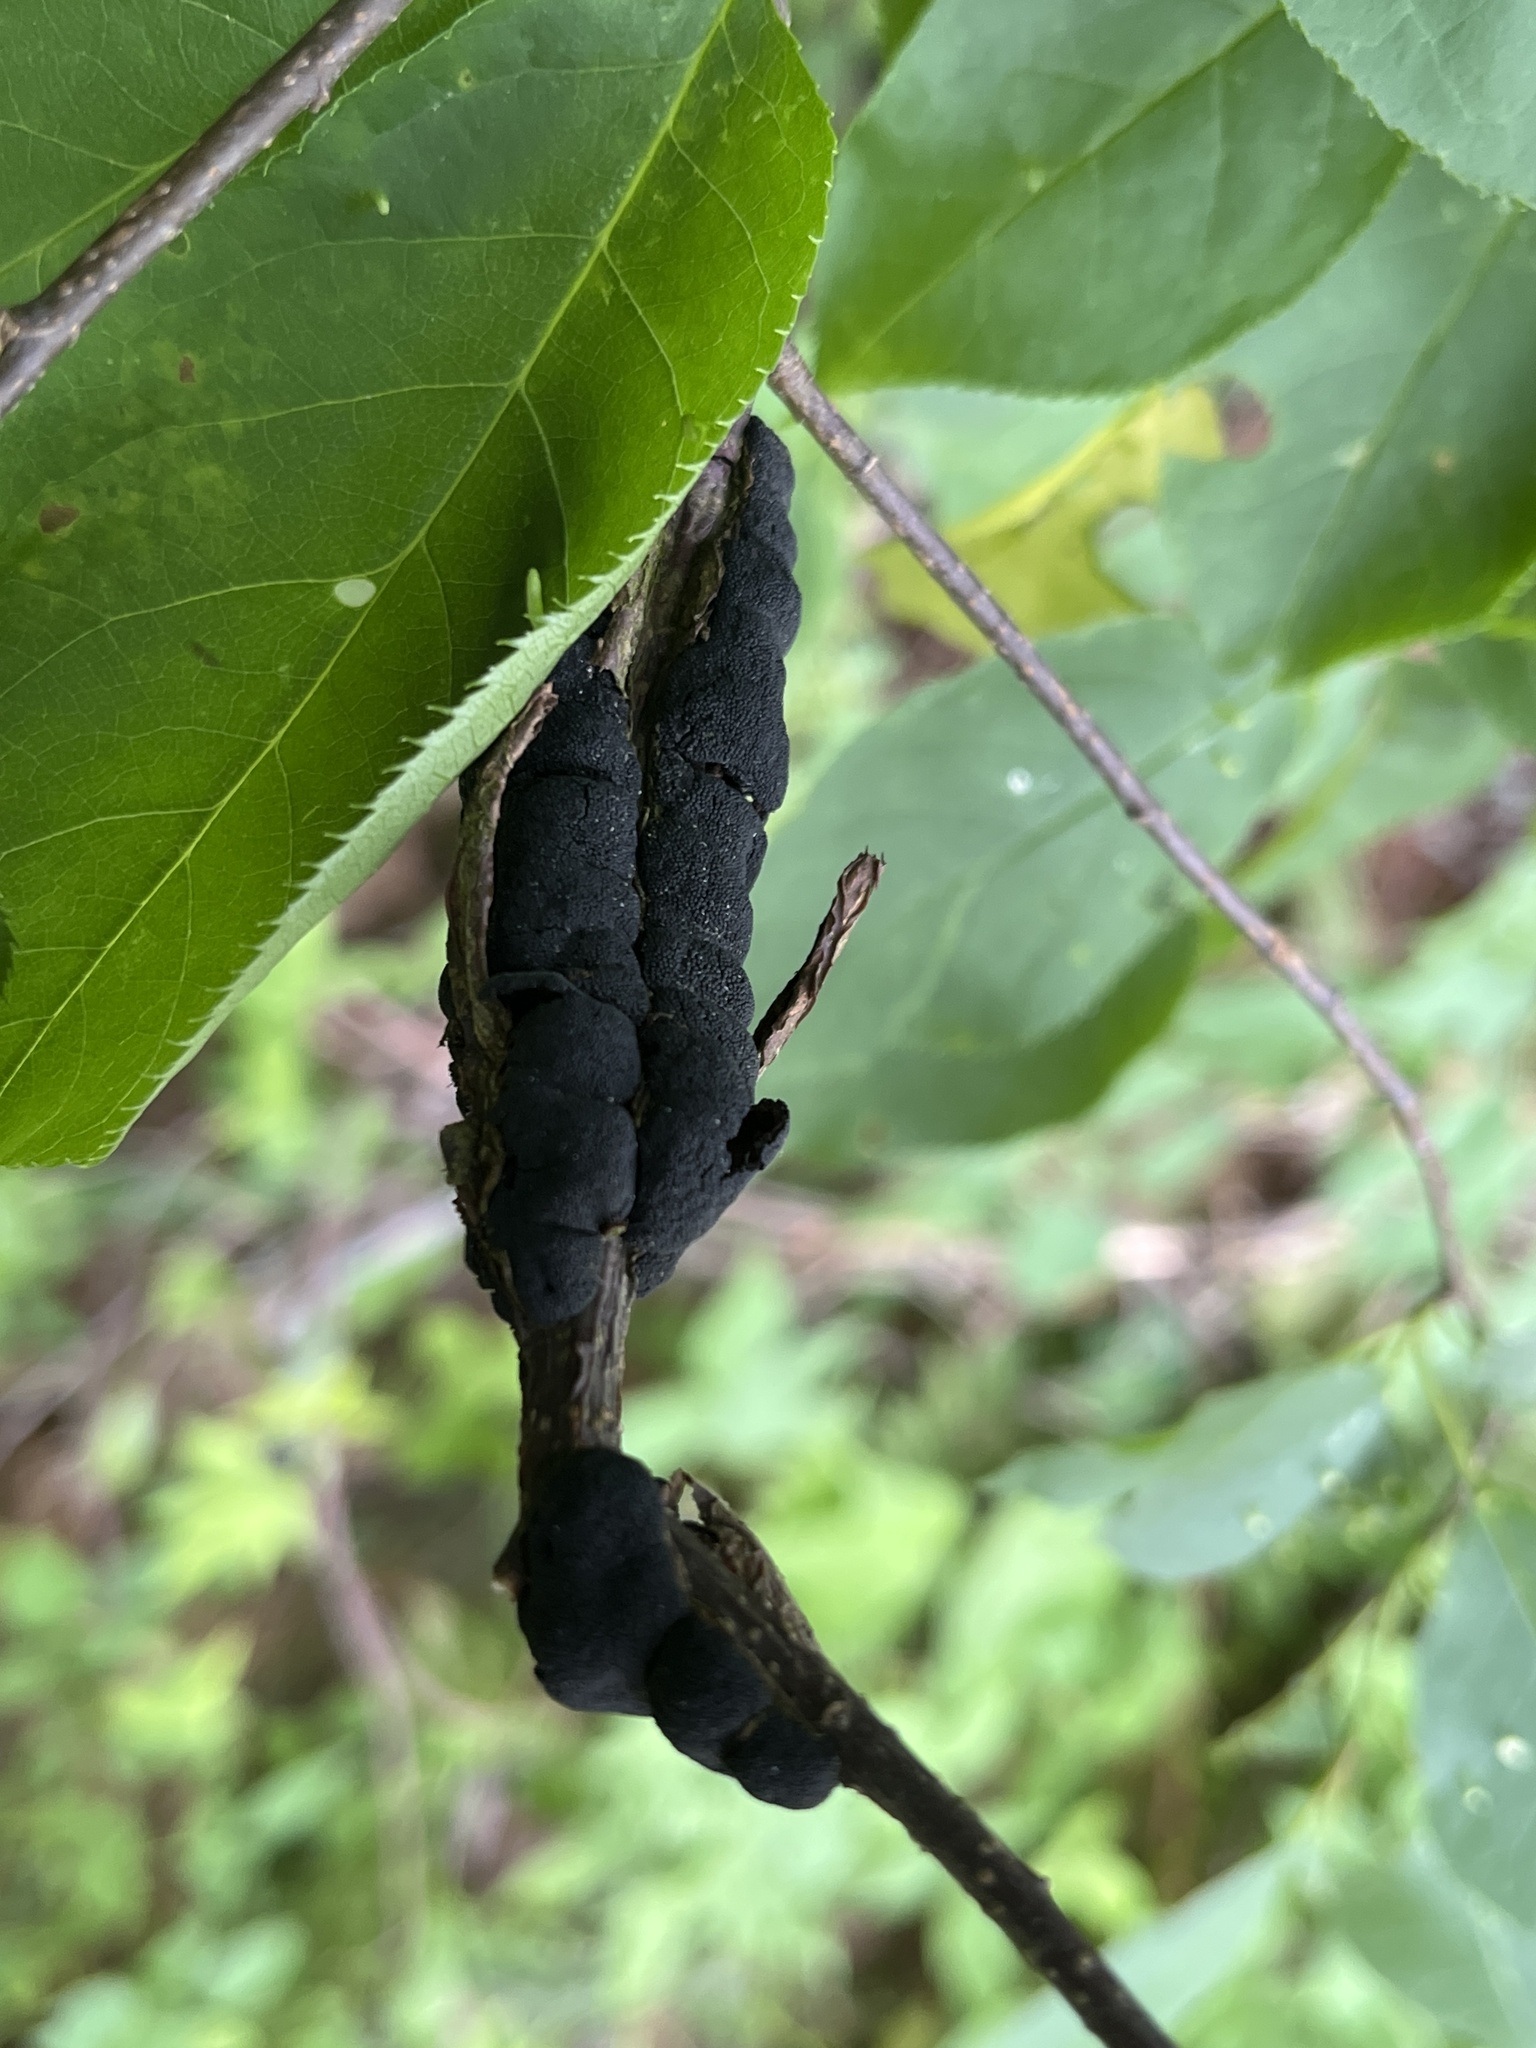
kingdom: Fungi
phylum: Ascomycota
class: Dothideomycetes
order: Venturiales
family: Venturiaceae
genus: Apiosporina
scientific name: Apiosporina morbosa
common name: Black knot
